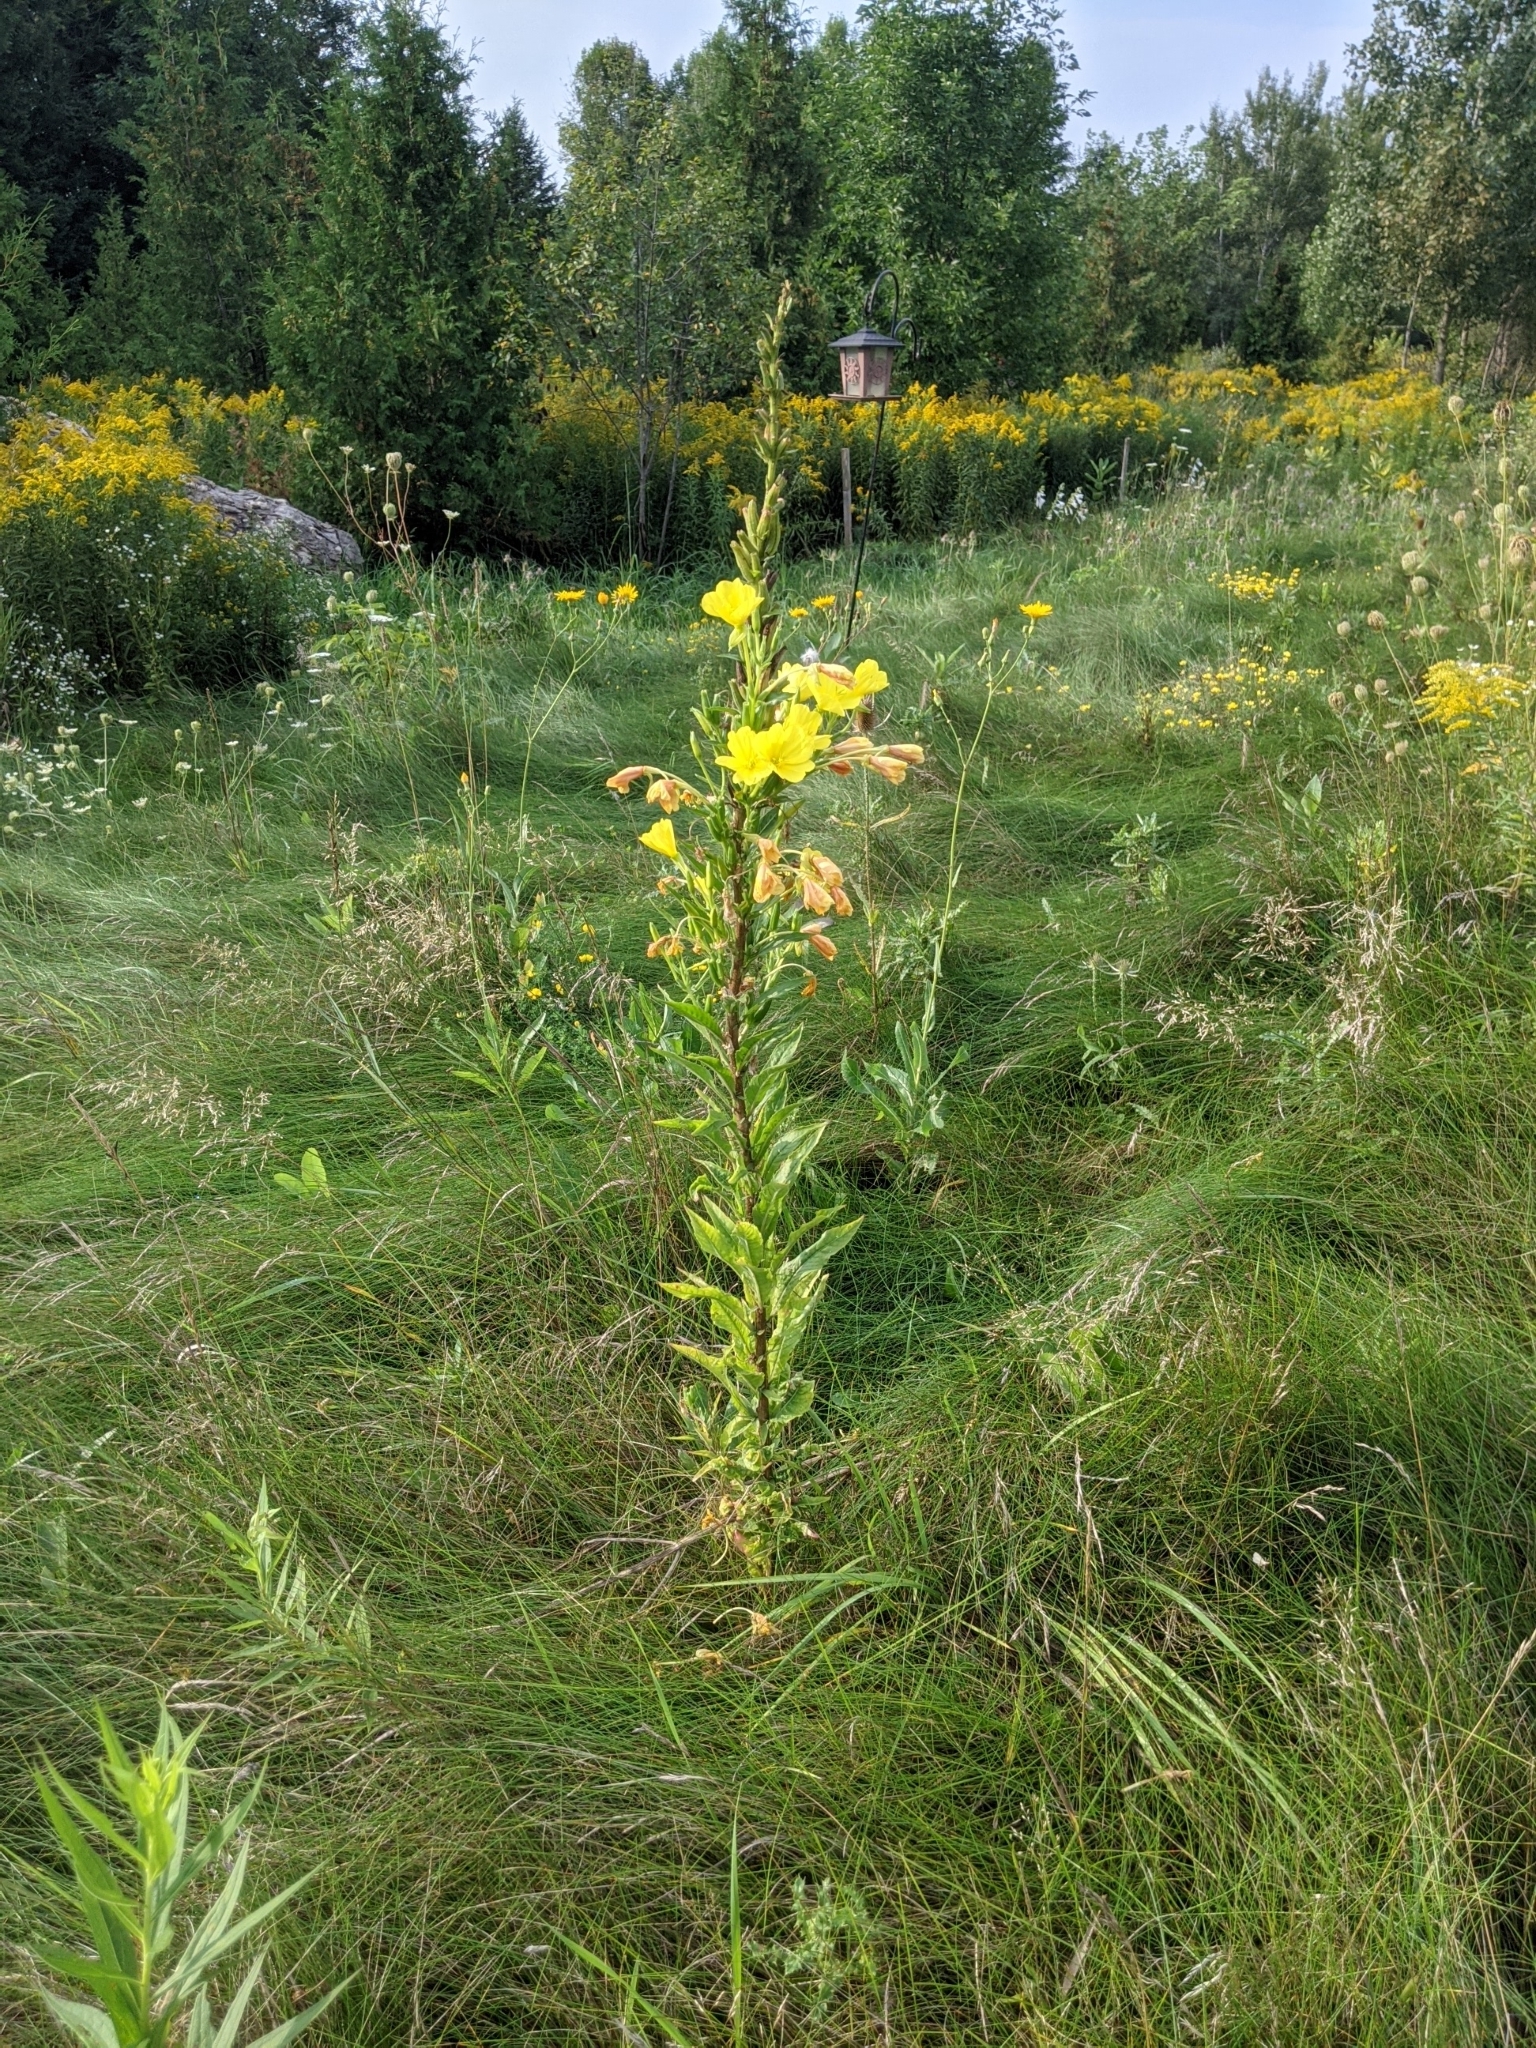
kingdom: Plantae
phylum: Tracheophyta
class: Magnoliopsida
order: Myrtales
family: Onagraceae
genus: Oenothera
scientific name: Oenothera biennis
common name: Common evening-primrose
